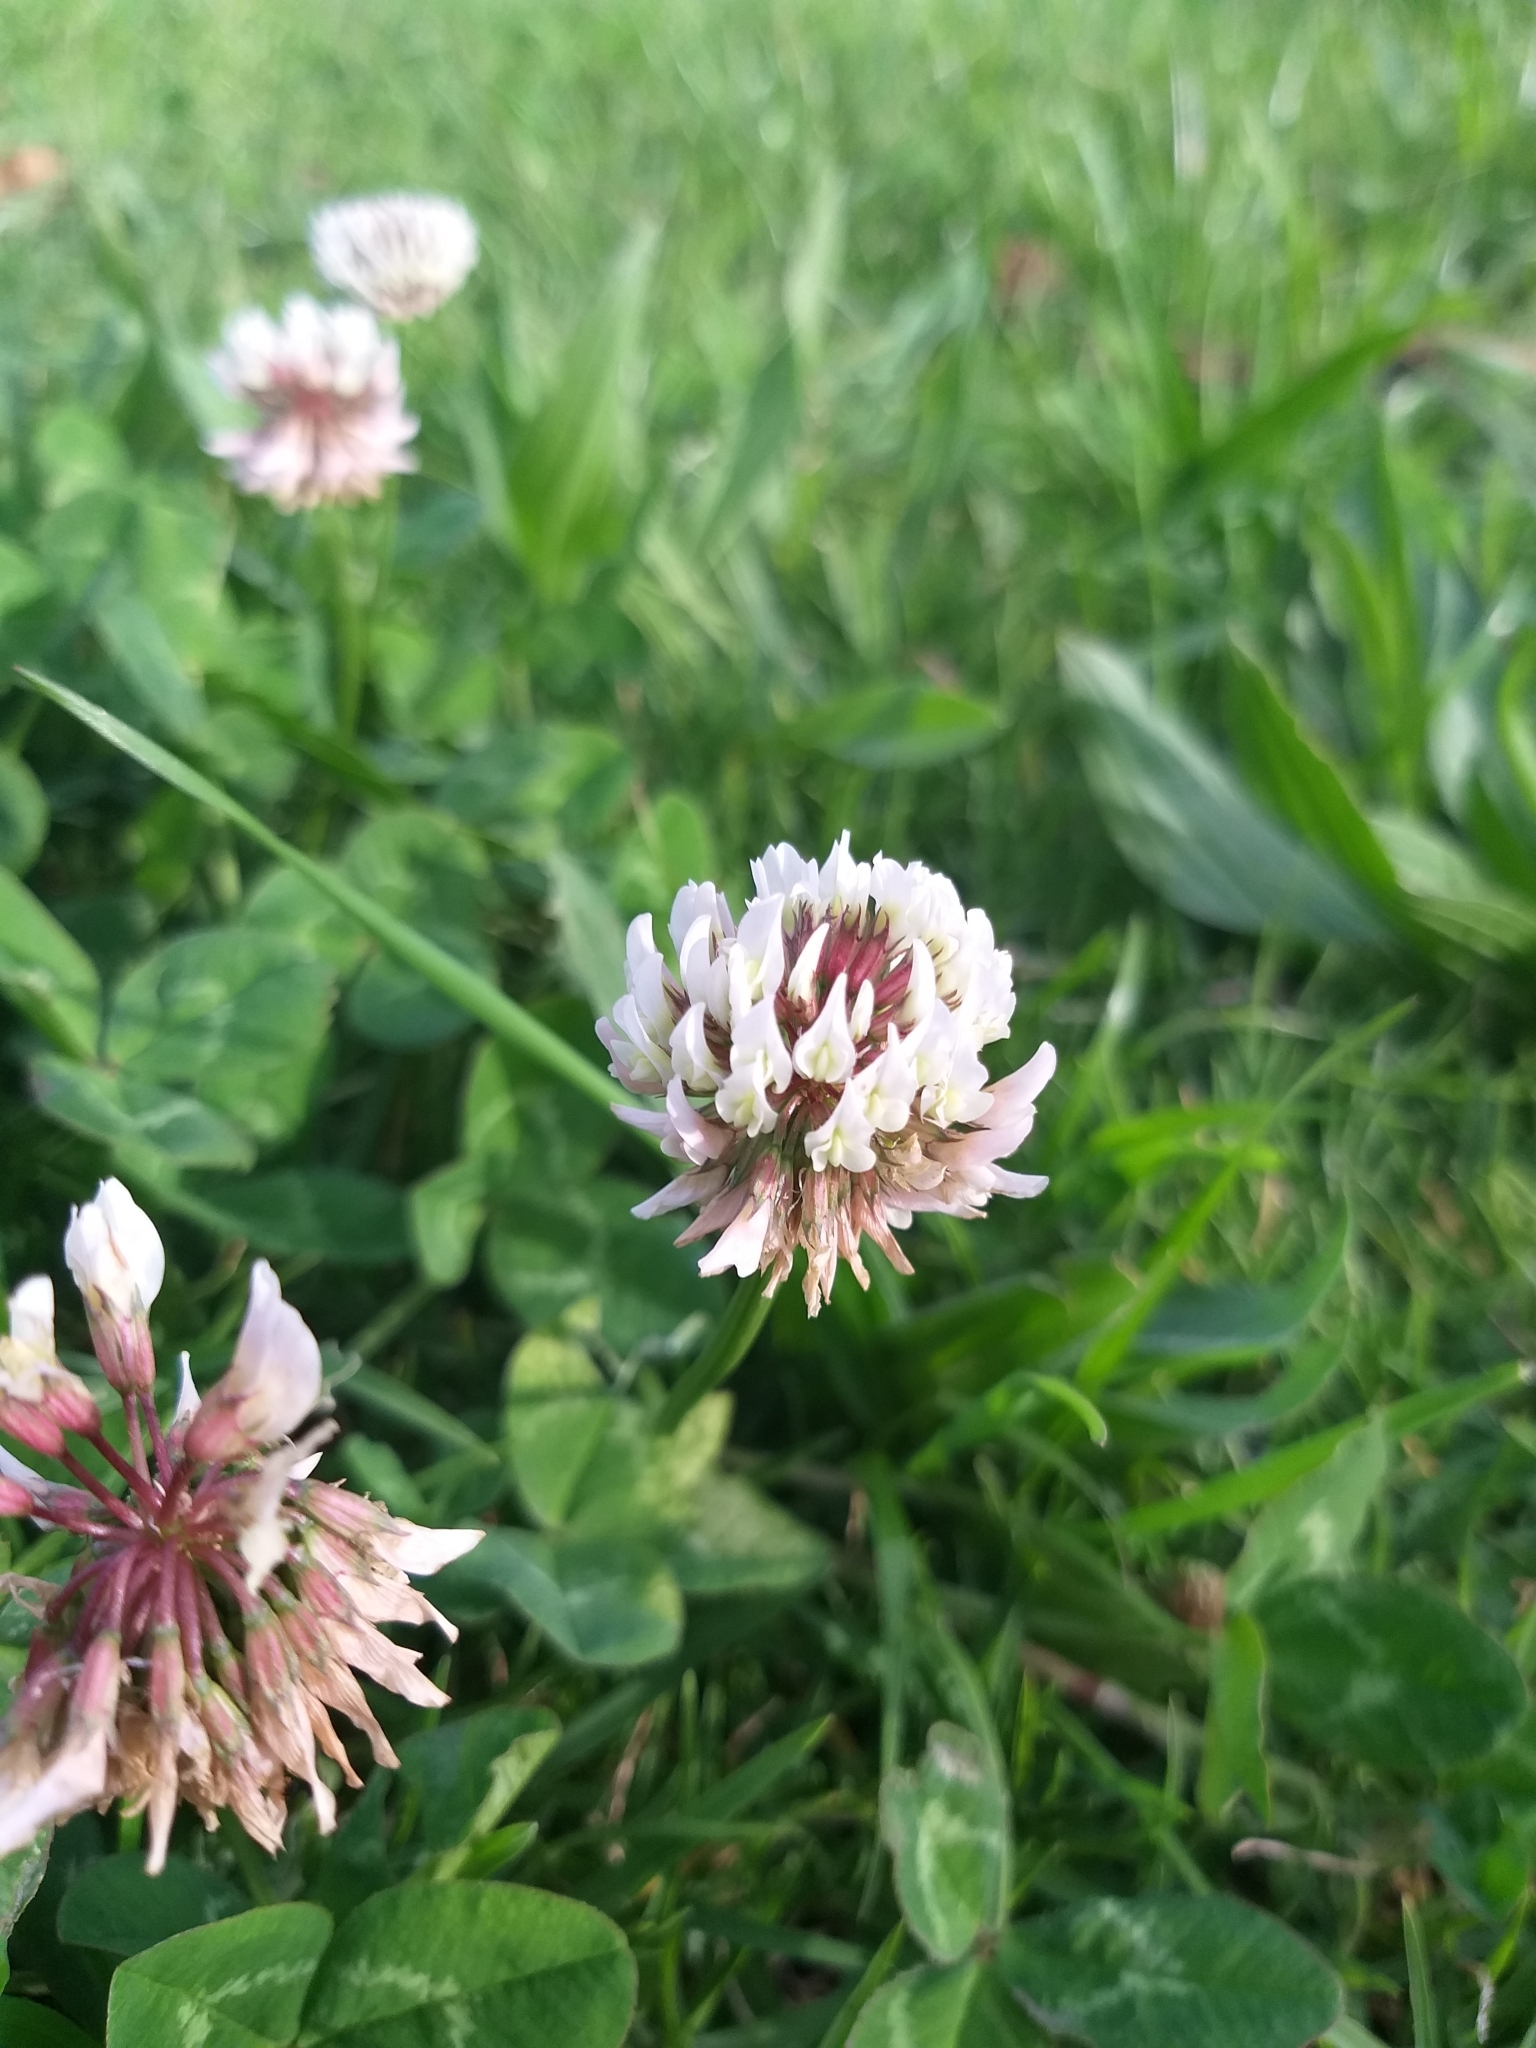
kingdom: Plantae
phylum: Tracheophyta
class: Magnoliopsida
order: Fabales
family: Fabaceae
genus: Trifolium
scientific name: Trifolium repens
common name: White clover
